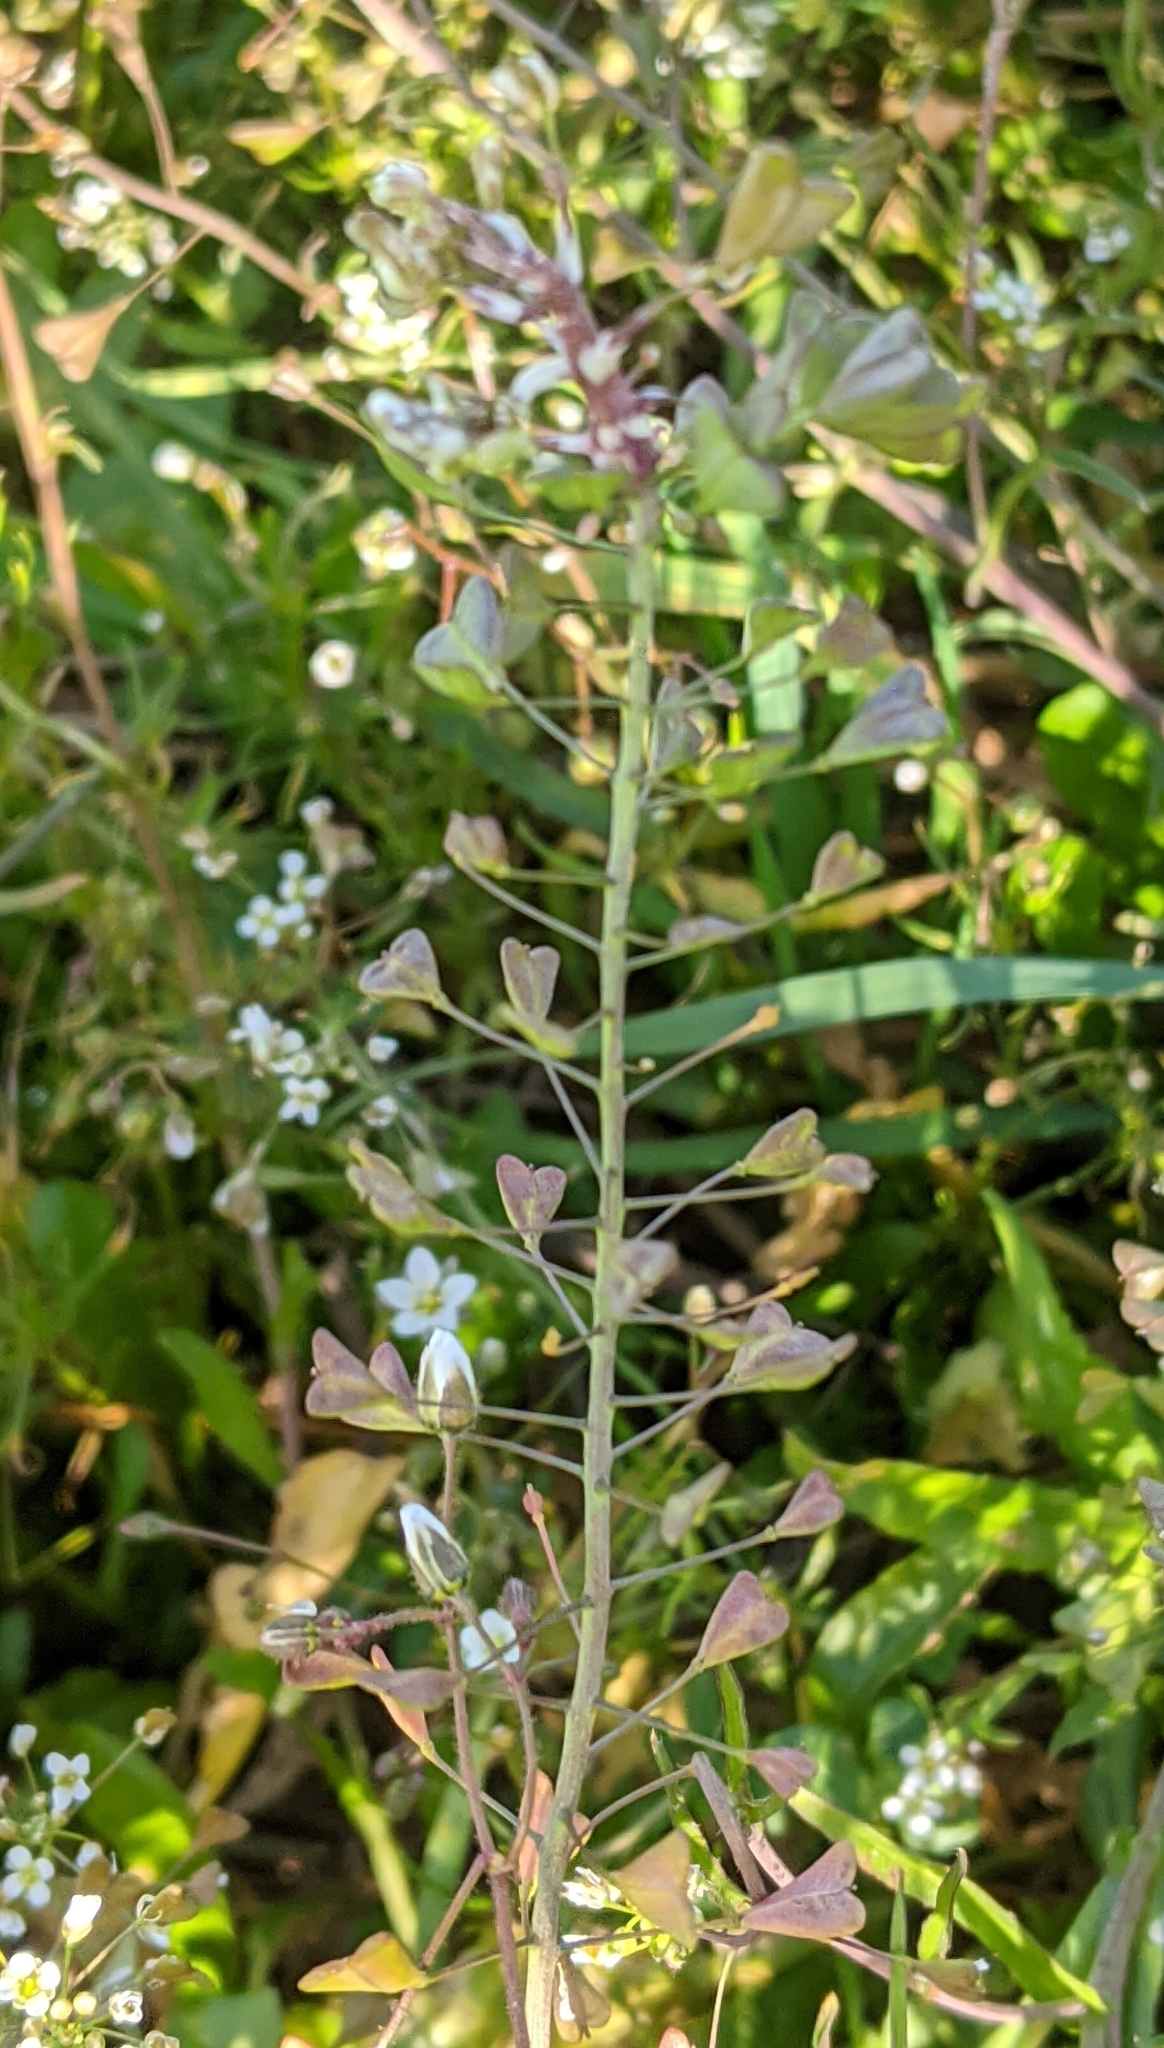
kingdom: Plantae
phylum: Tracheophyta
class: Magnoliopsida
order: Brassicales
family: Brassicaceae
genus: Capsella
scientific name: Capsella bursa-pastoris
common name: Shepherd's purse
